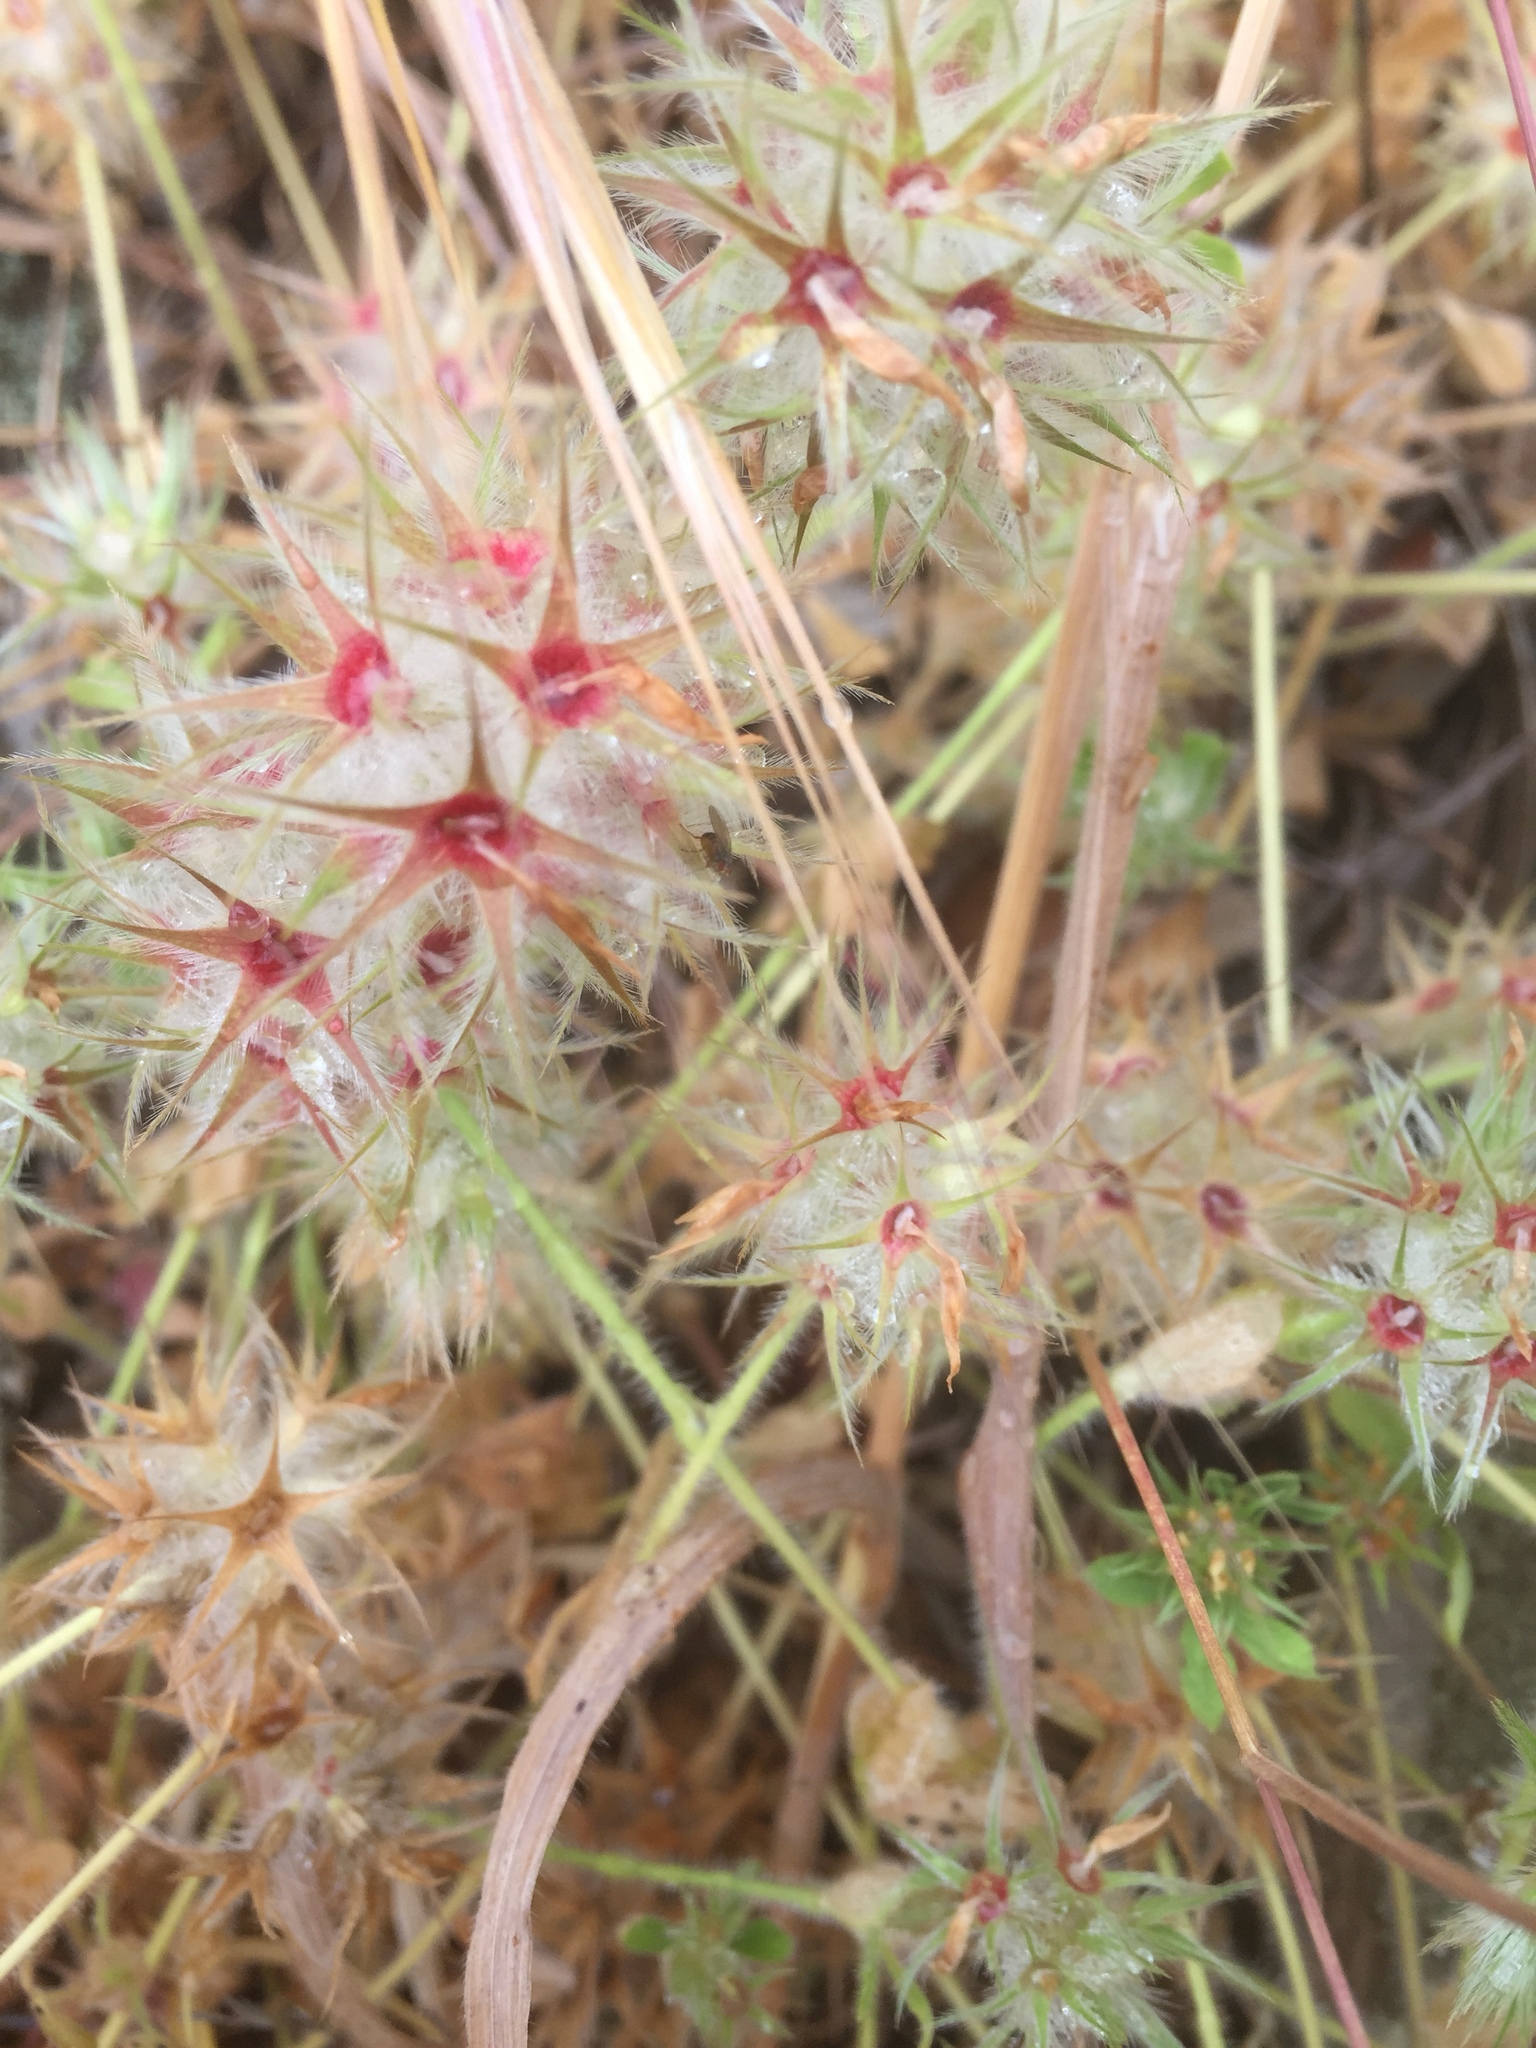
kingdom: Plantae
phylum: Tracheophyta
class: Magnoliopsida
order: Fabales
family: Fabaceae
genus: Trifolium
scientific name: Trifolium stellatum
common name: Starry clover
